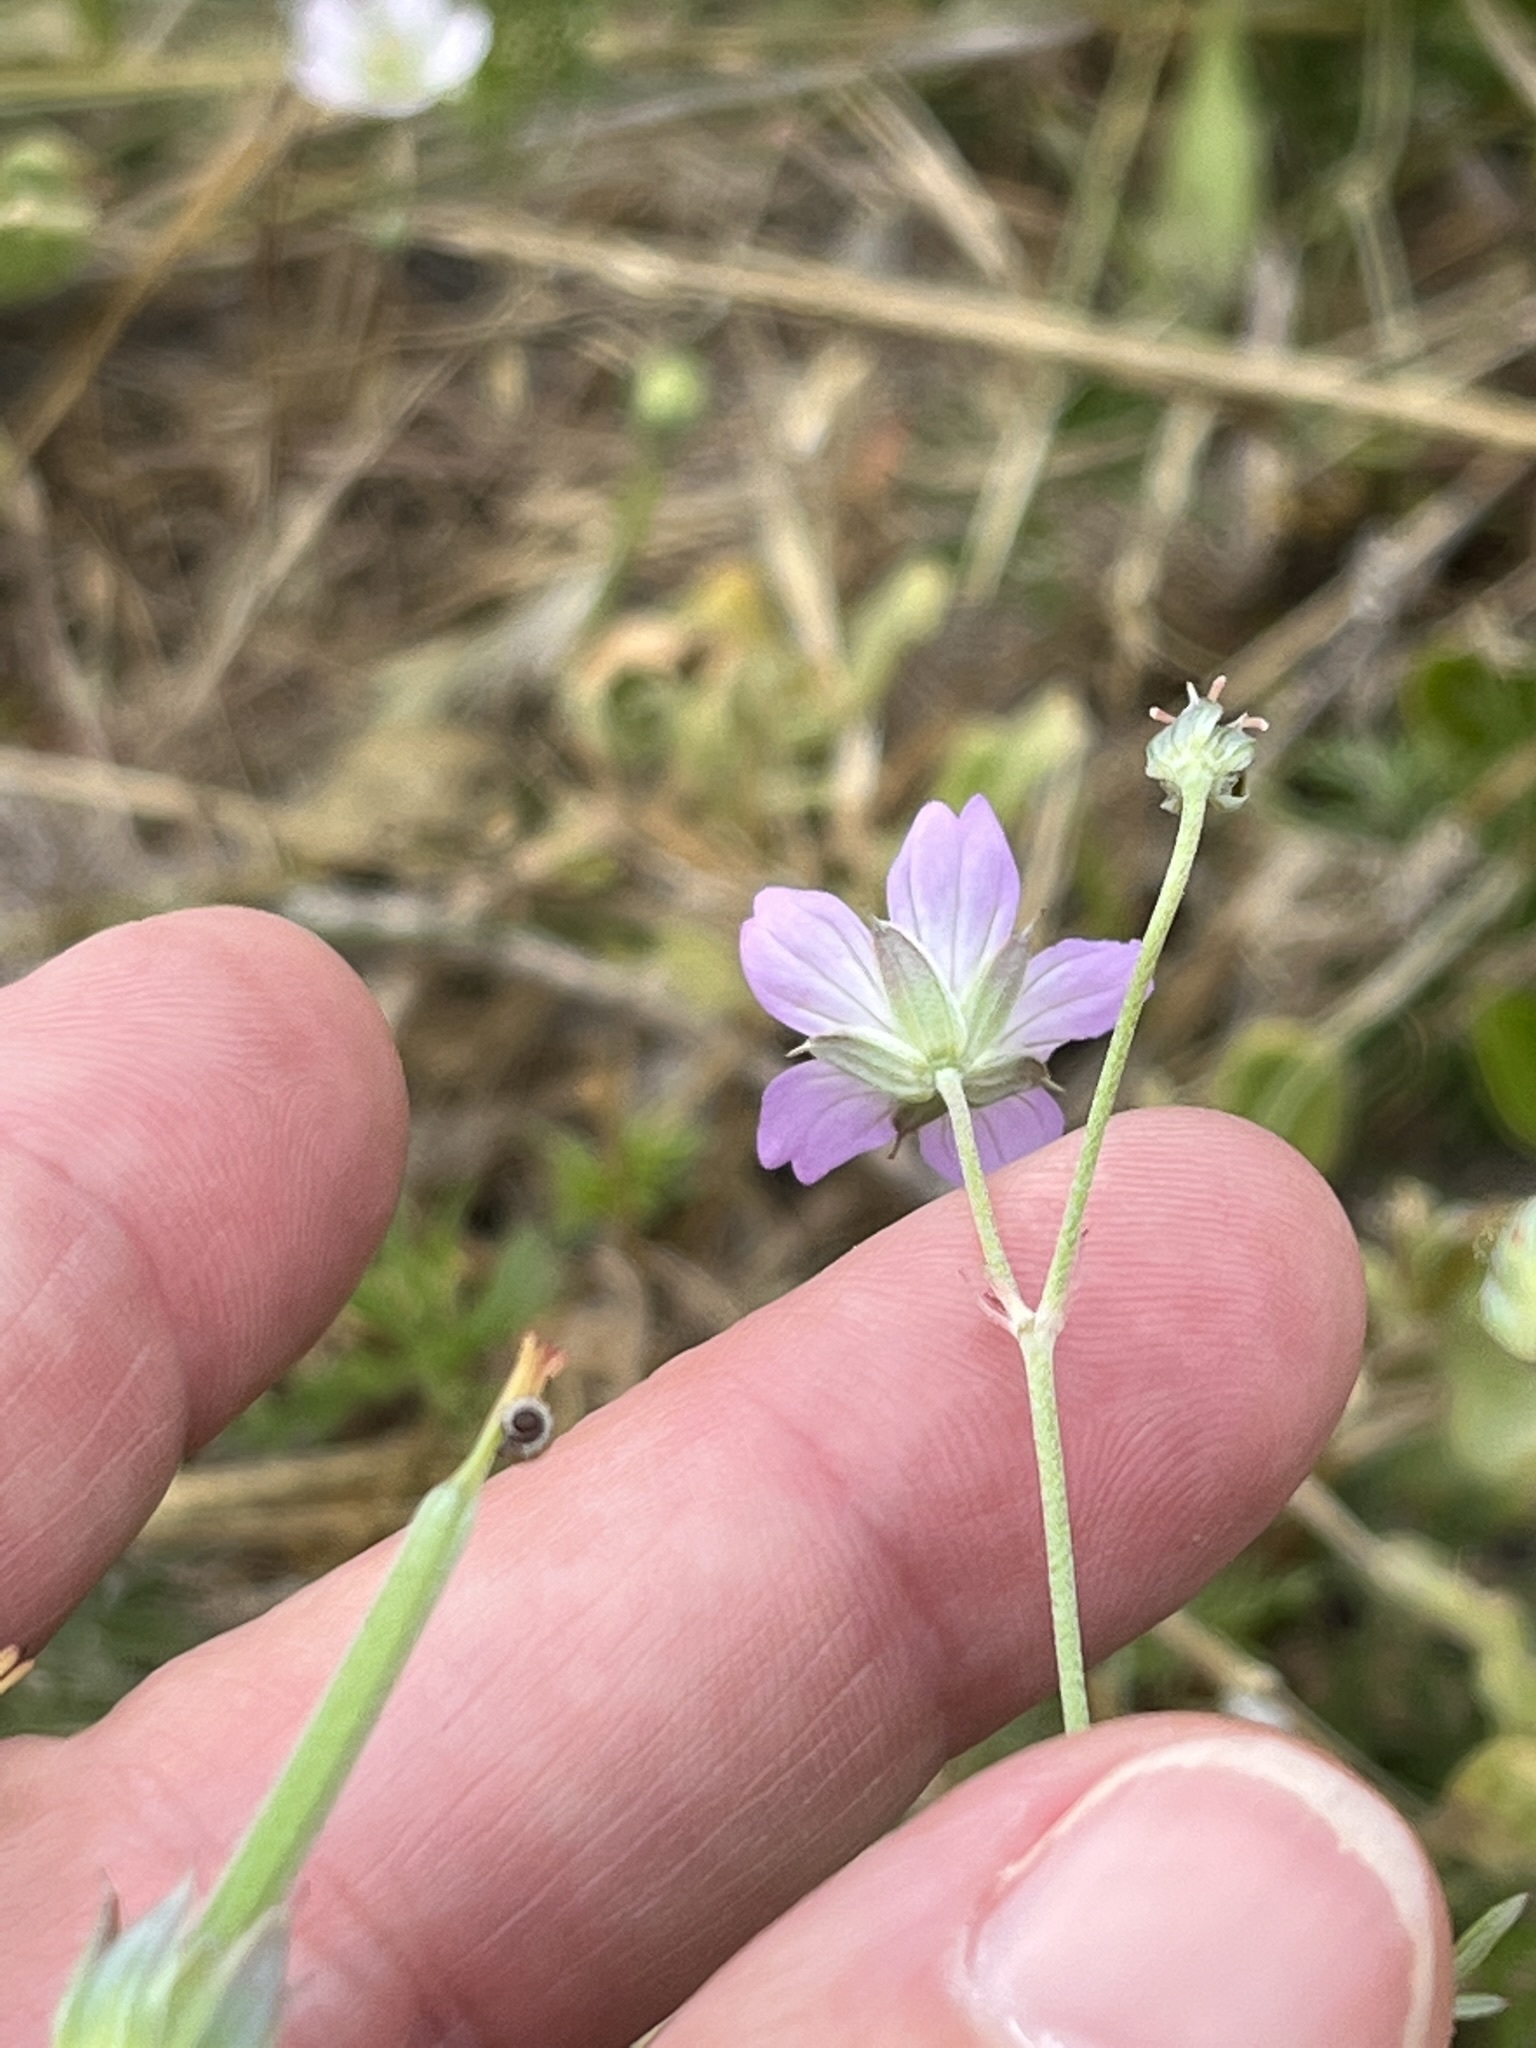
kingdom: Plantae
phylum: Tracheophyta
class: Magnoliopsida
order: Geraniales
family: Geraniaceae
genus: Geranium
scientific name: Geranium incanum
